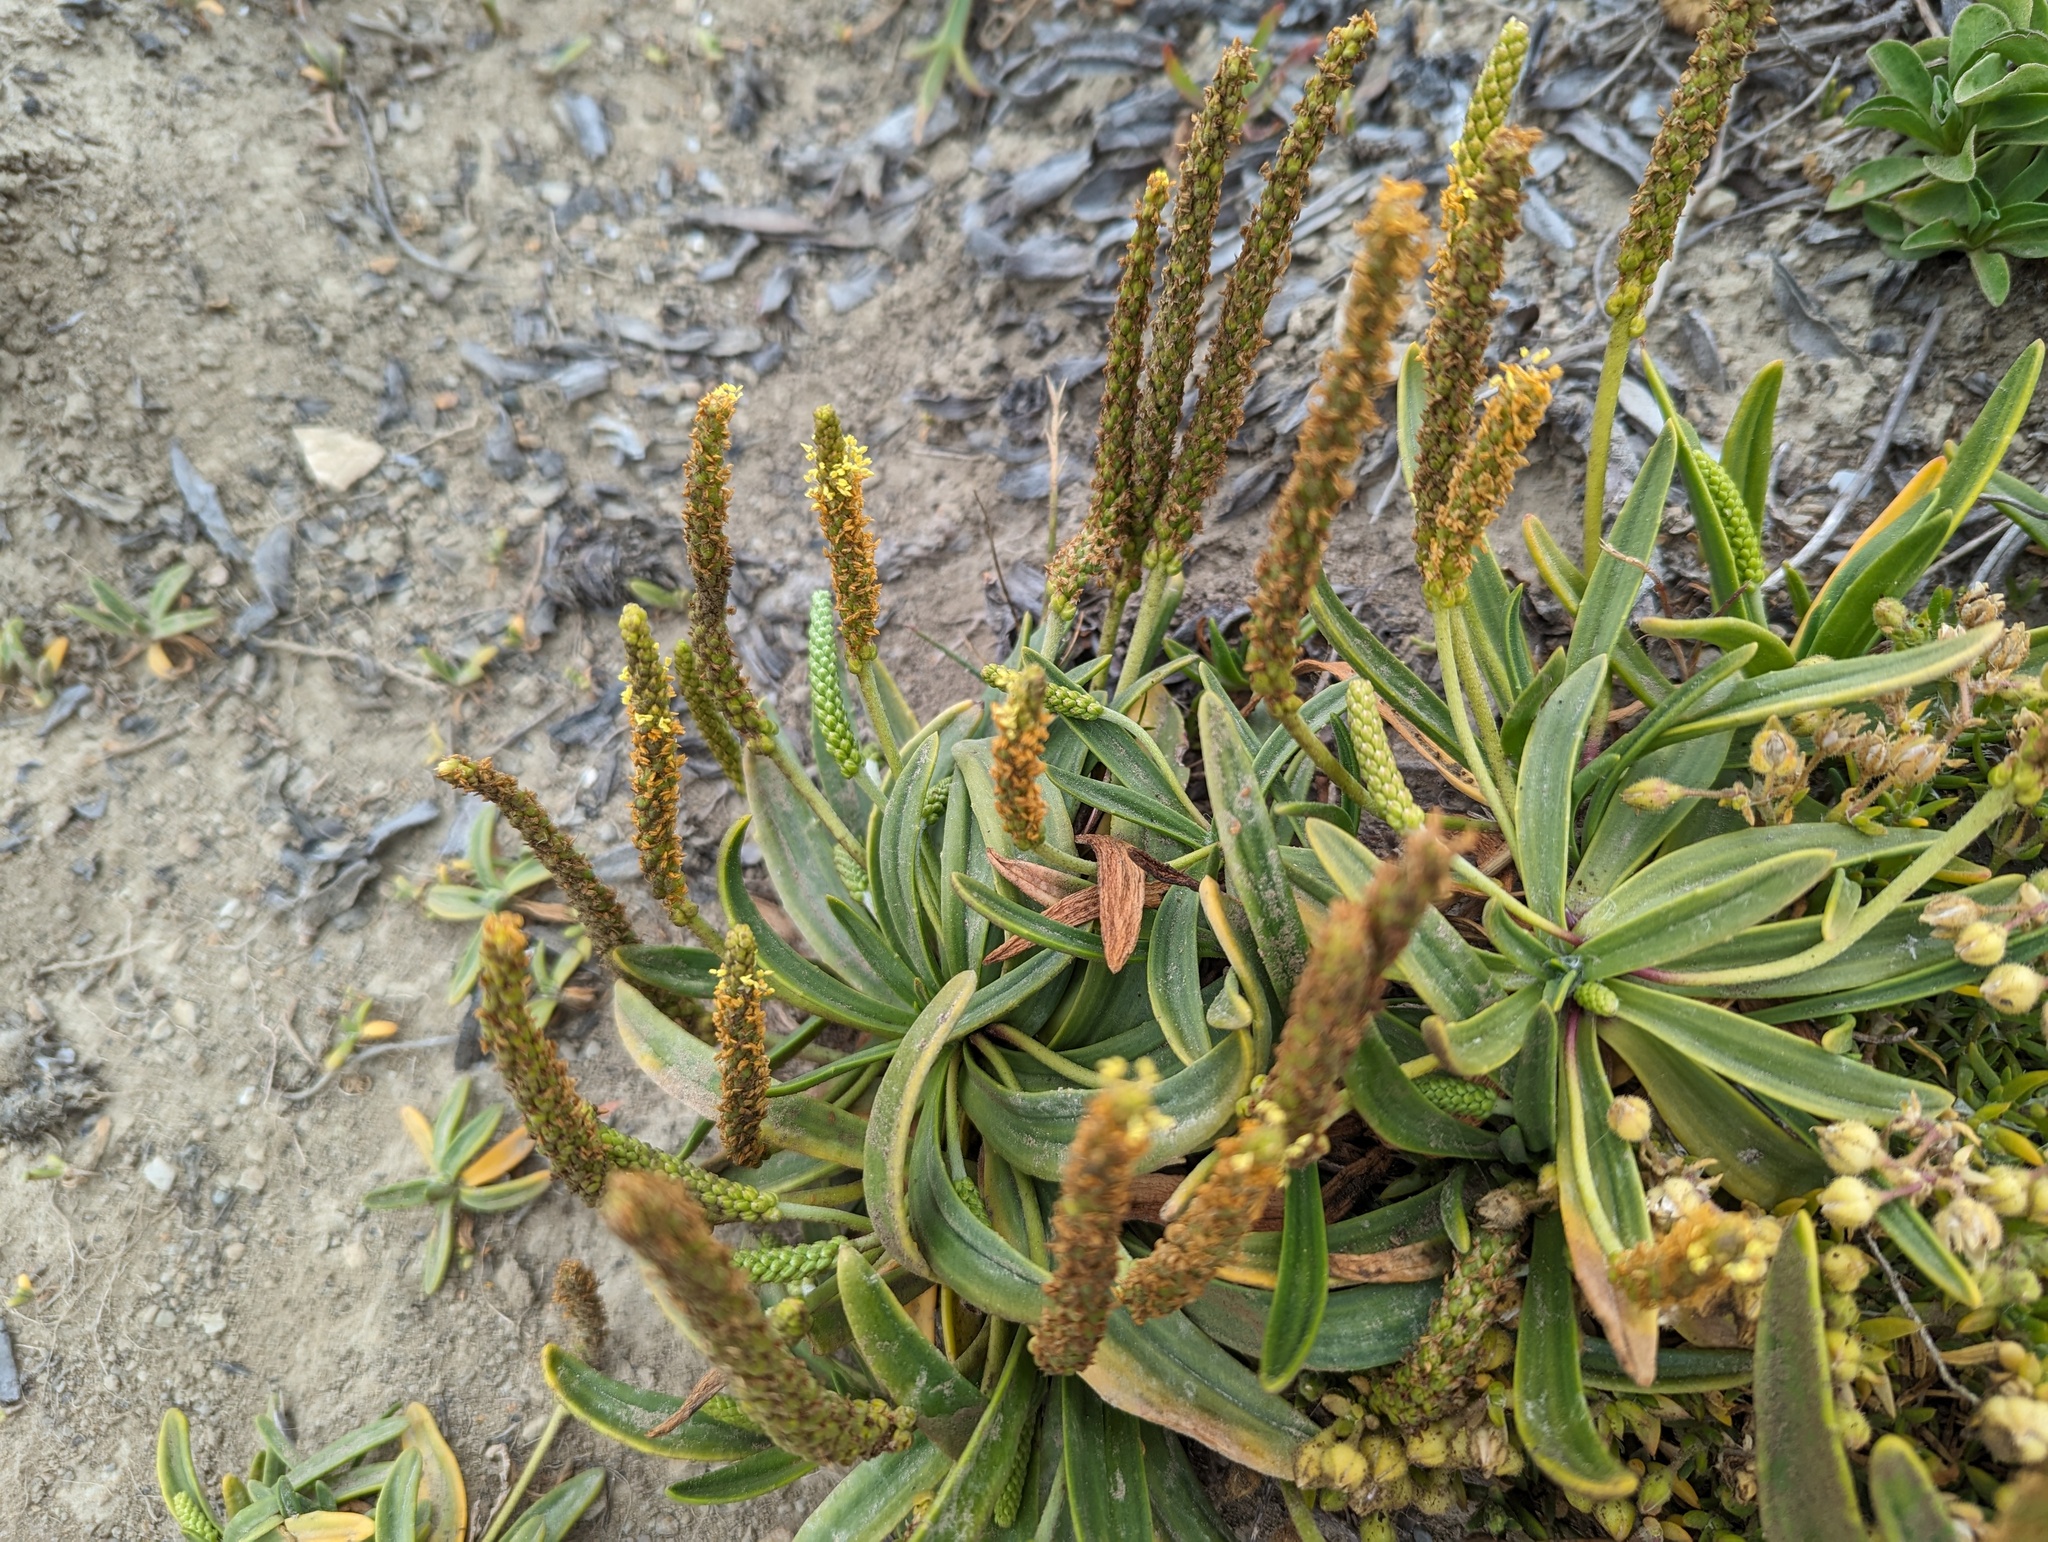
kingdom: Plantae
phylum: Tracheophyta
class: Magnoliopsida
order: Lamiales
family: Plantaginaceae
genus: Plantago
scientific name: Plantago maritima
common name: Sea plantain
